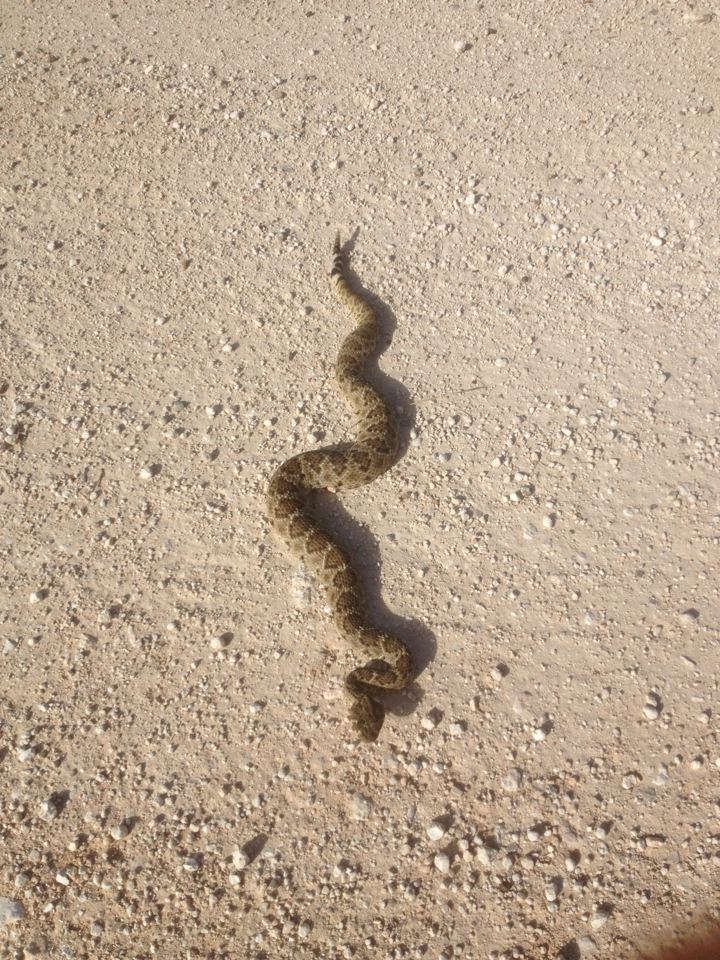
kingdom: Animalia
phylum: Chordata
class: Squamata
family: Viperidae
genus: Crotalus
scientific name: Crotalus atrox
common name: Western diamond-backed rattlesnake
